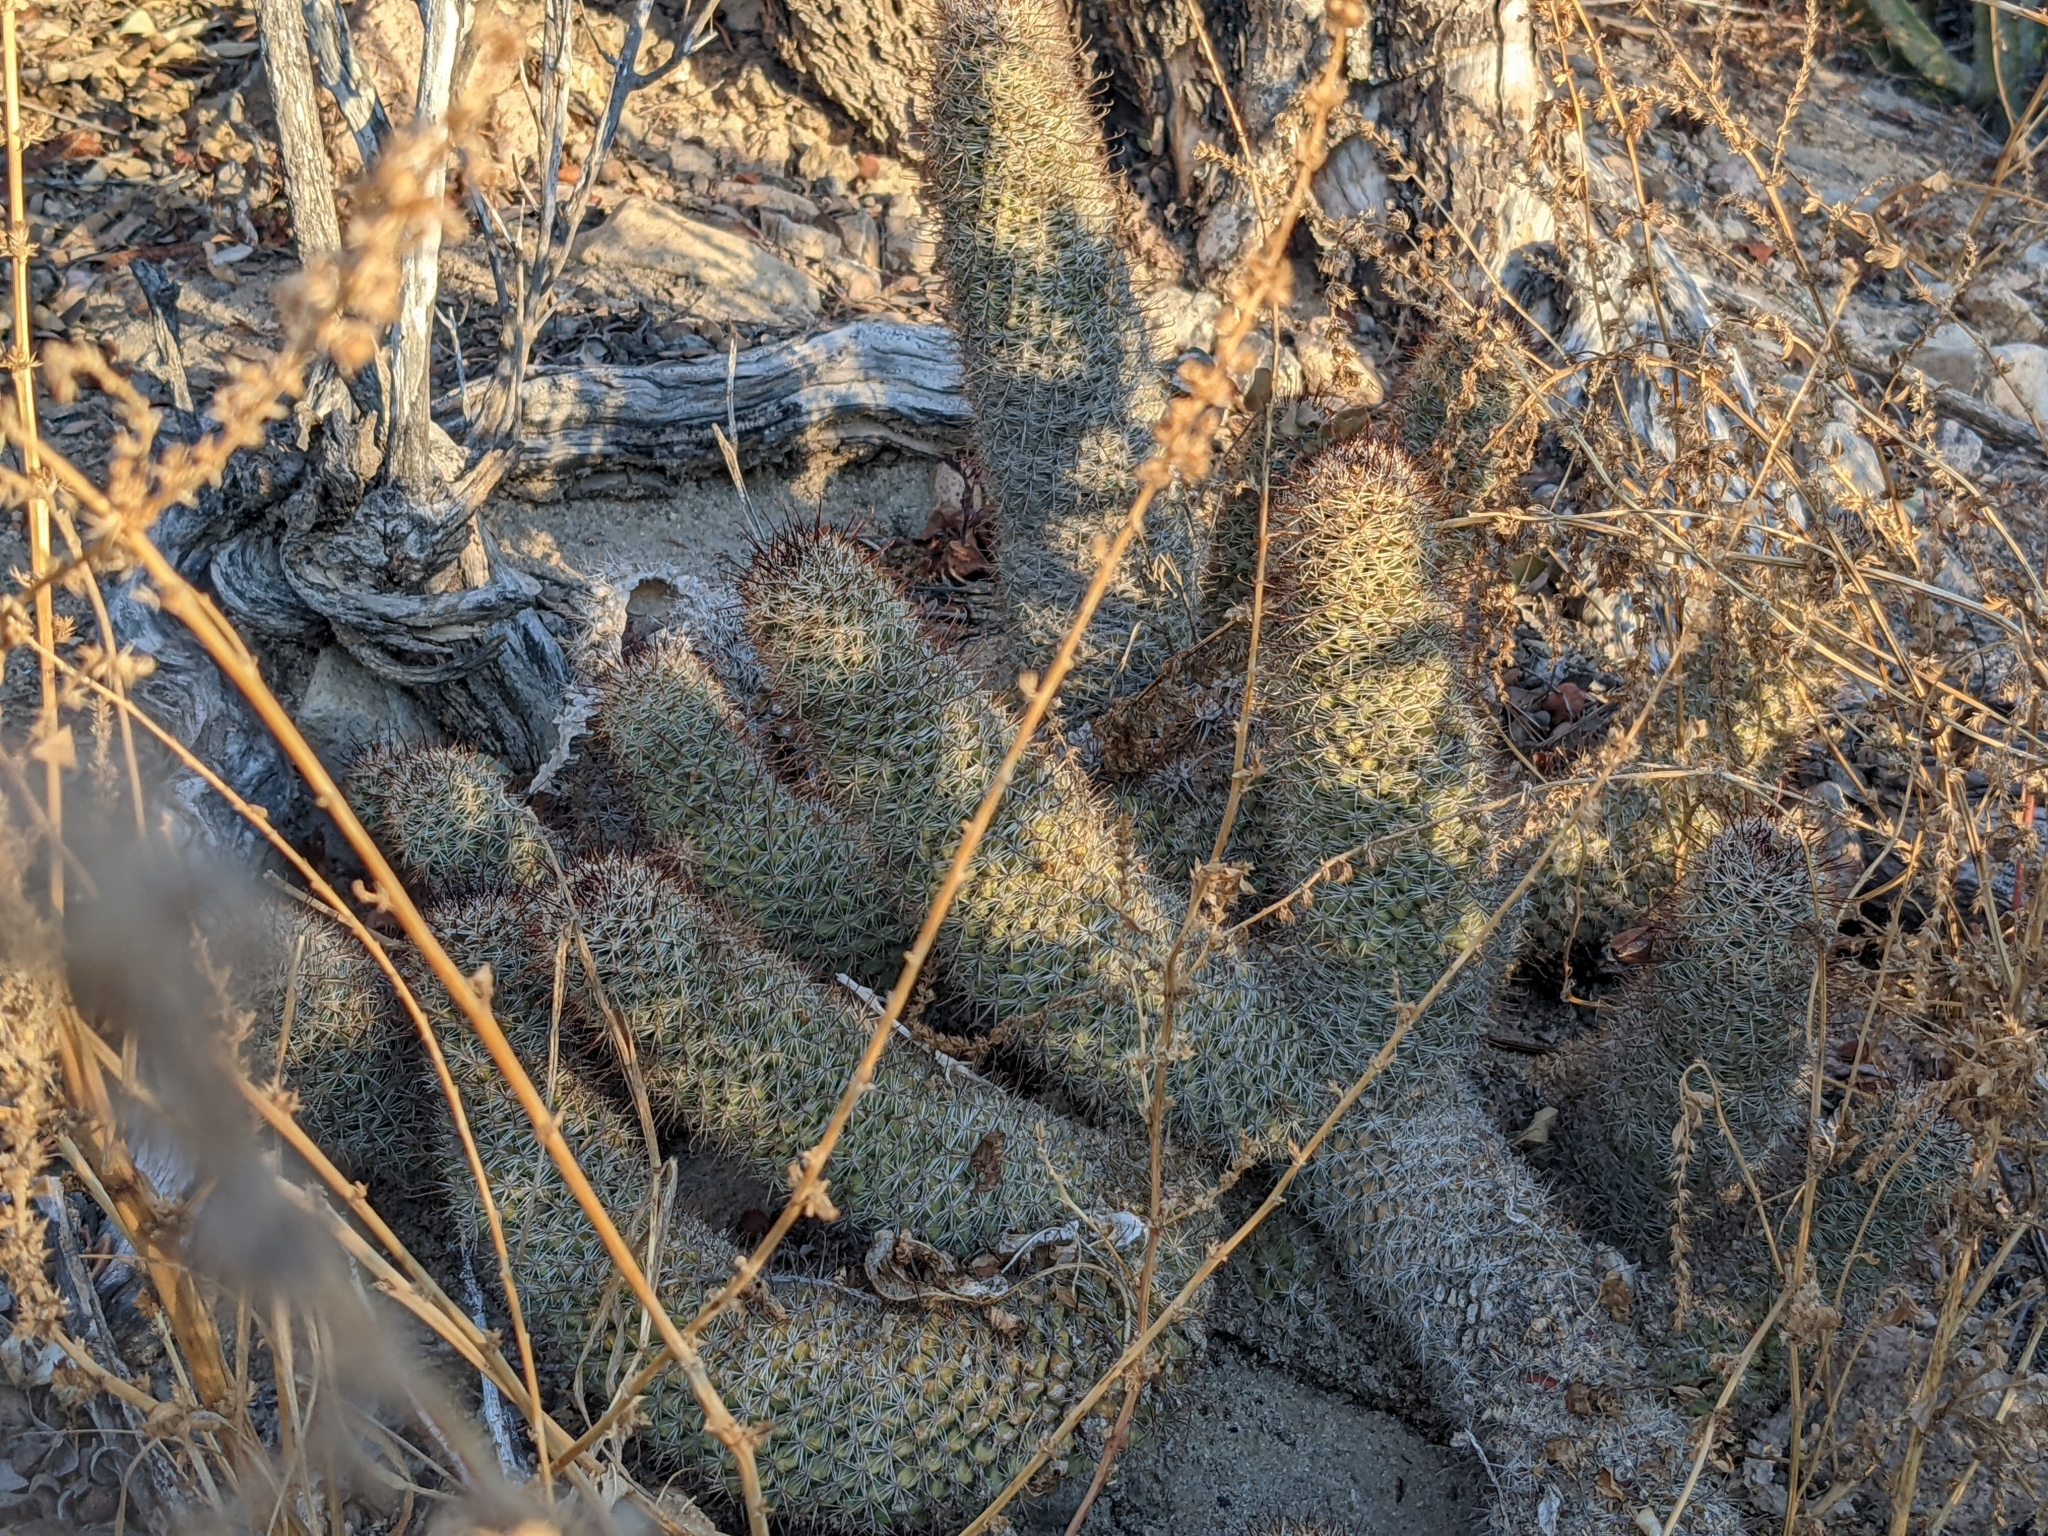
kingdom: Plantae
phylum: Tracheophyta
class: Magnoliopsida
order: Caryophyllales
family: Cactaceae
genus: Cochemiea
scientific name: Cochemiea armillata
